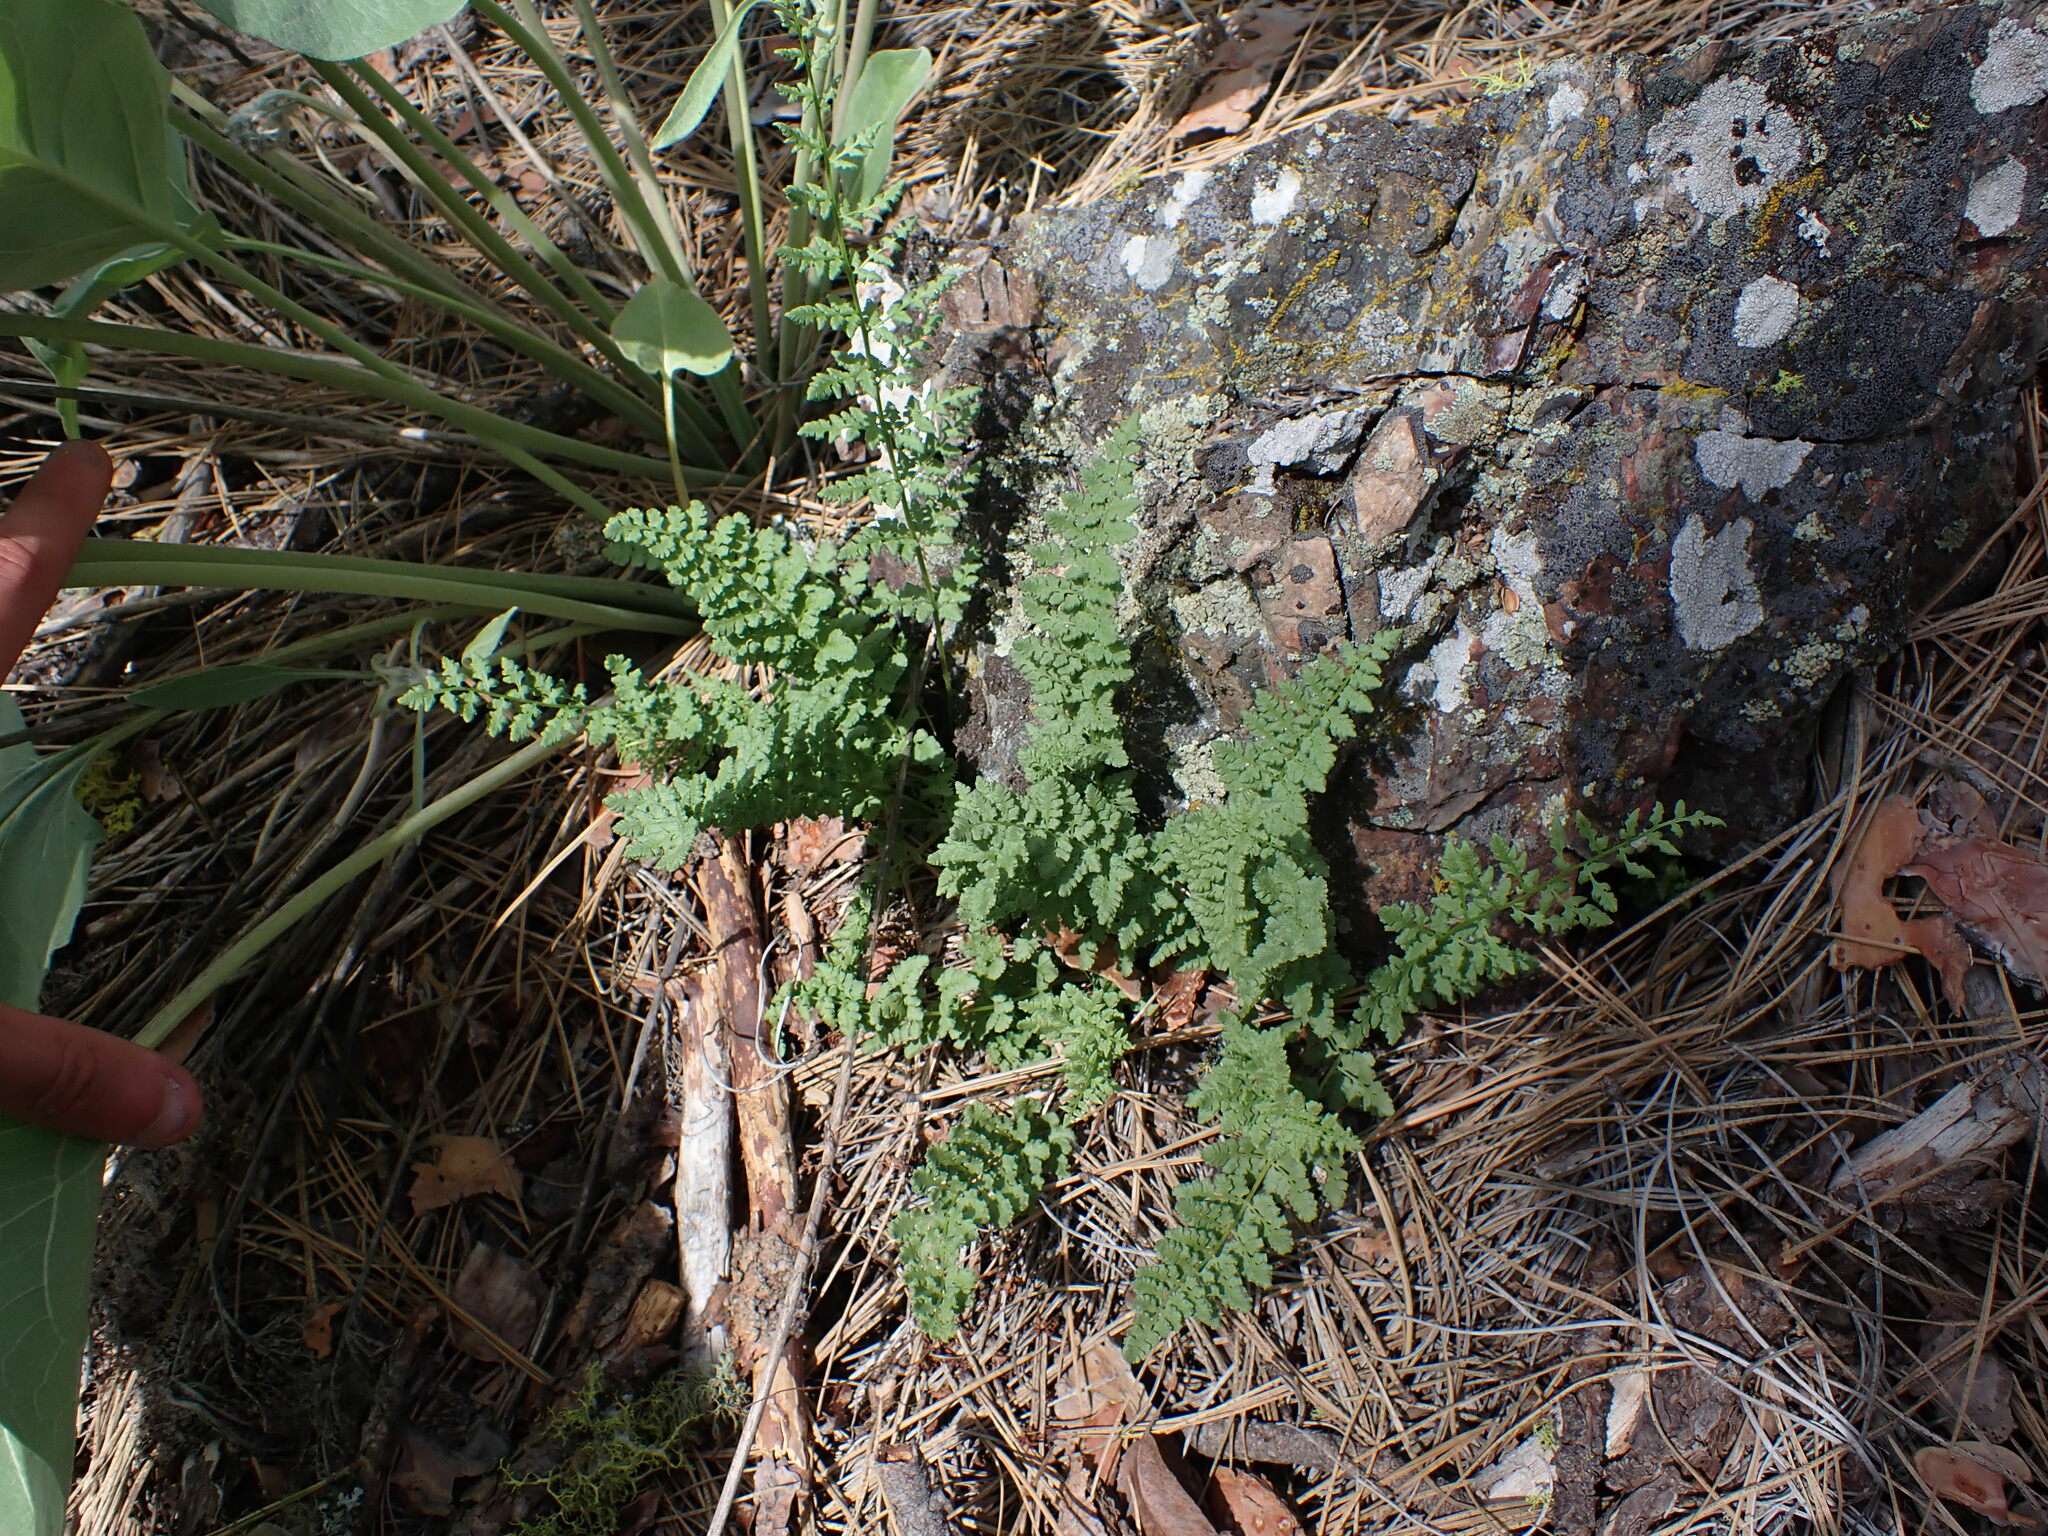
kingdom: Plantae
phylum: Tracheophyta
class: Polypodiopsida
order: Polypodiales
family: Woodsiaceae
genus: Physematium
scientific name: Physematium oreganum
